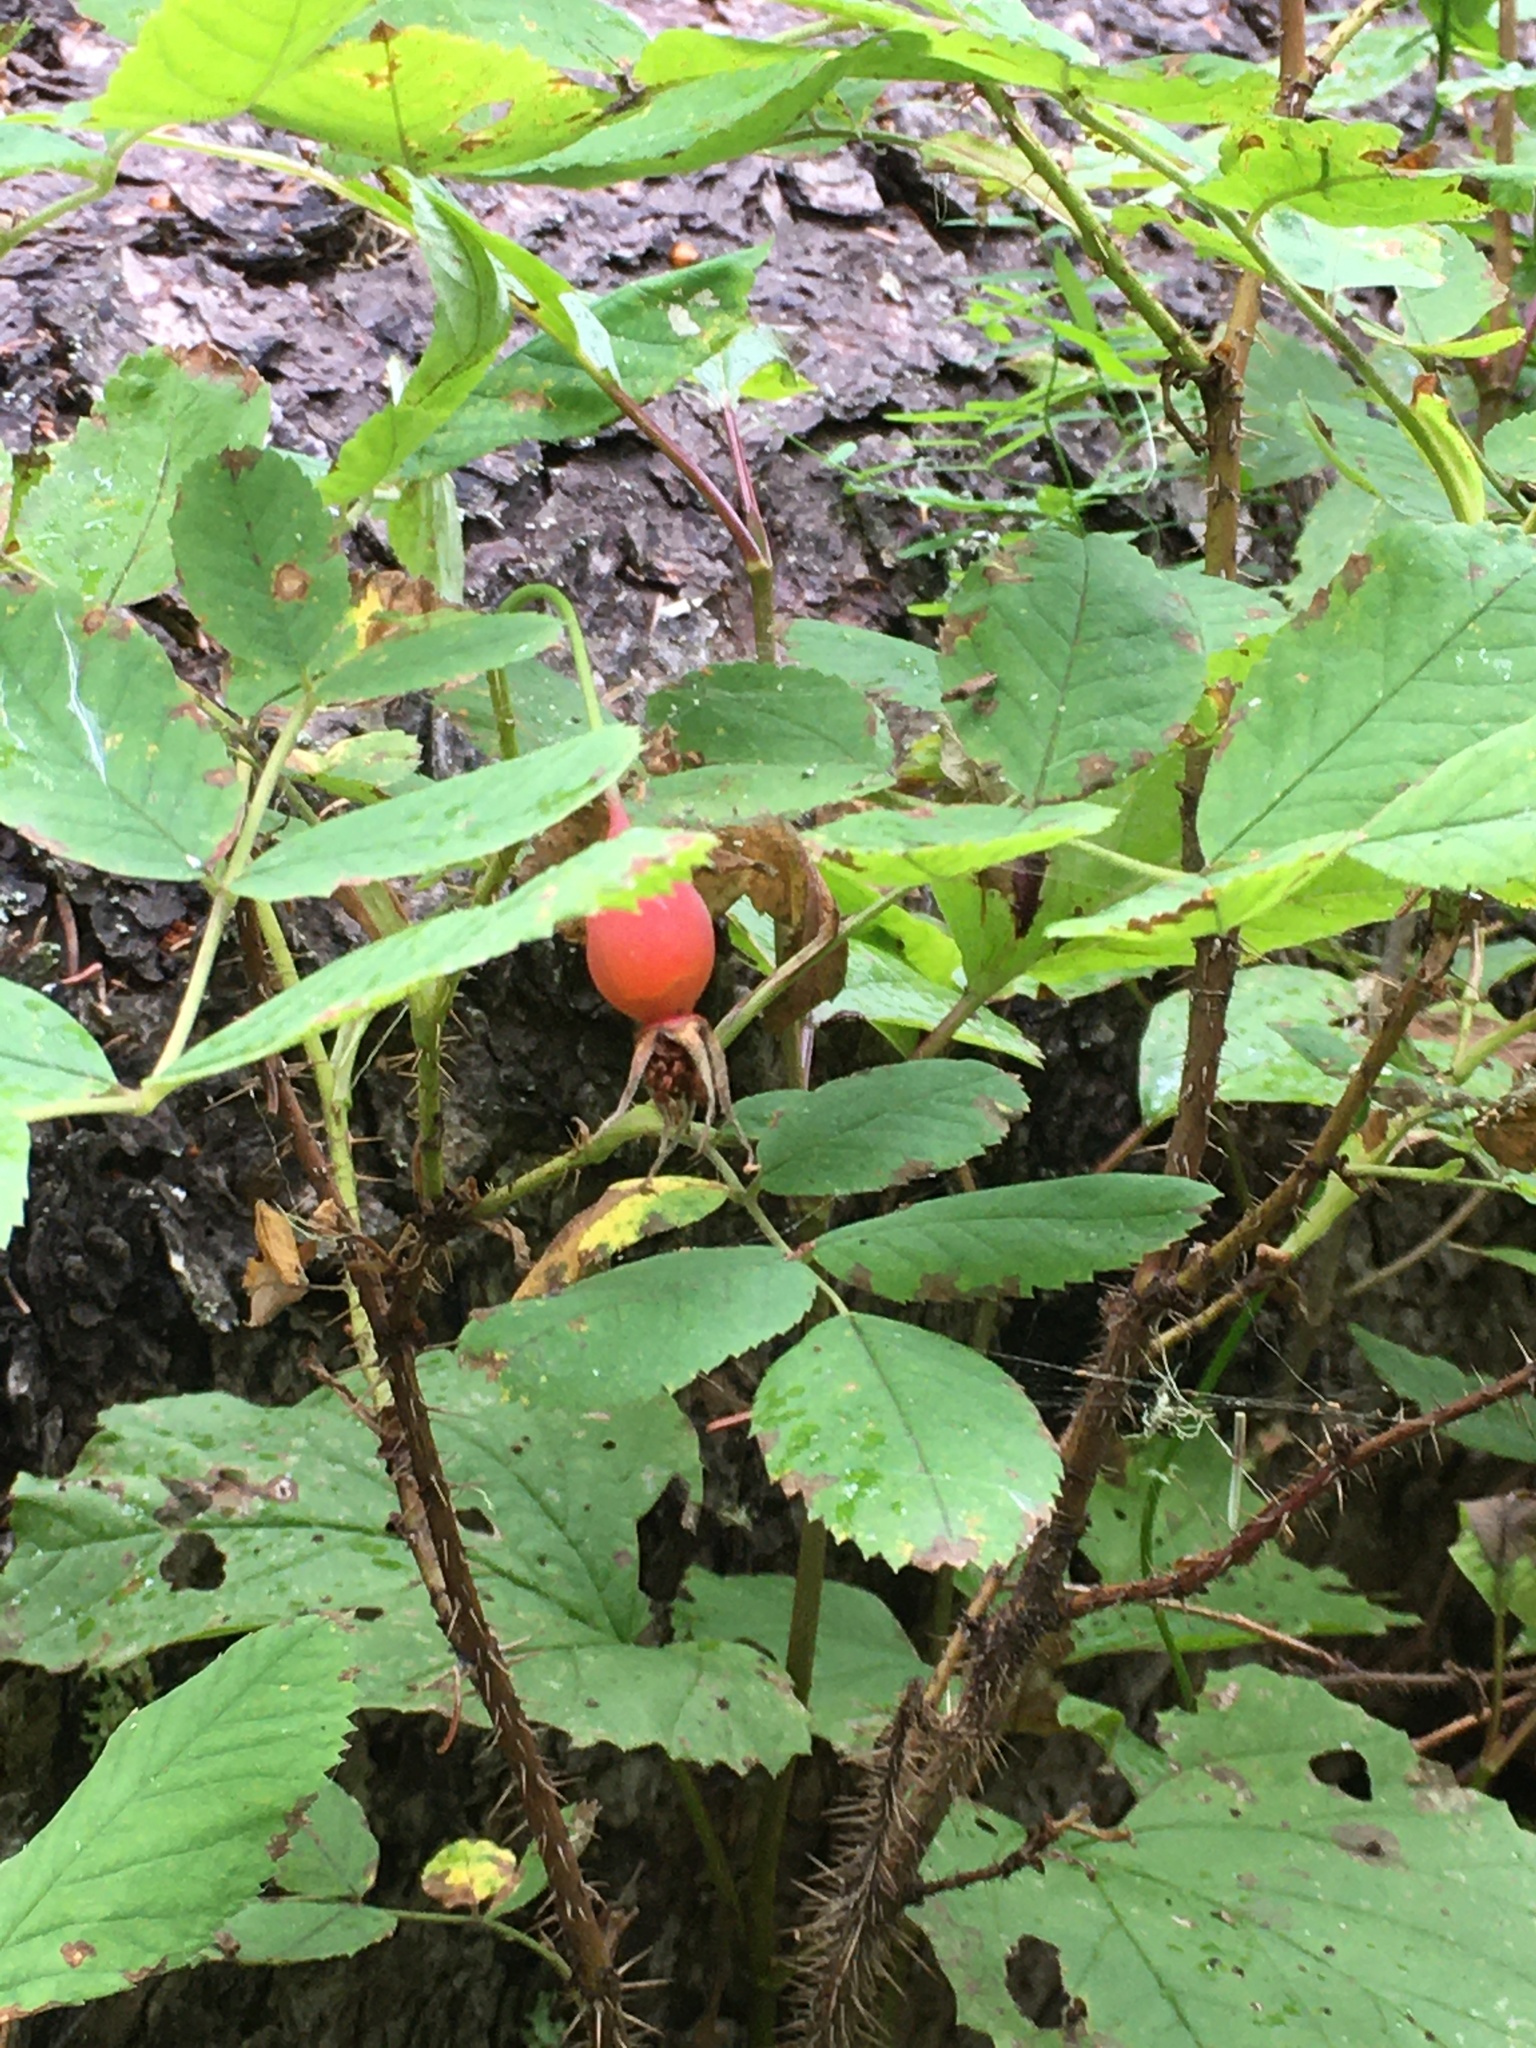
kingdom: Plantae
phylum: Tracheophyta
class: Magnoliopsida
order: Rosales
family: Rosaceae
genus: Rosa
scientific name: Rosa acicularis
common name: Prickly rose
